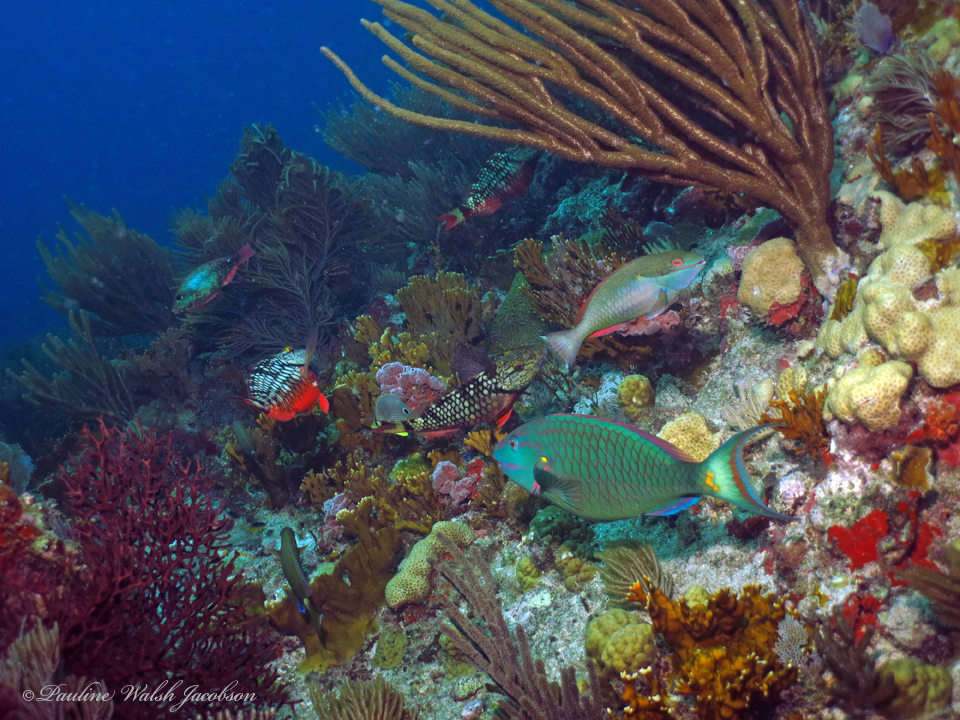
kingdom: Animalia
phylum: Chordata
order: Perciformes
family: Scaridae
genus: Sparisoma
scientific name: Sparisoma viride
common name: Stoplight parrotfish
